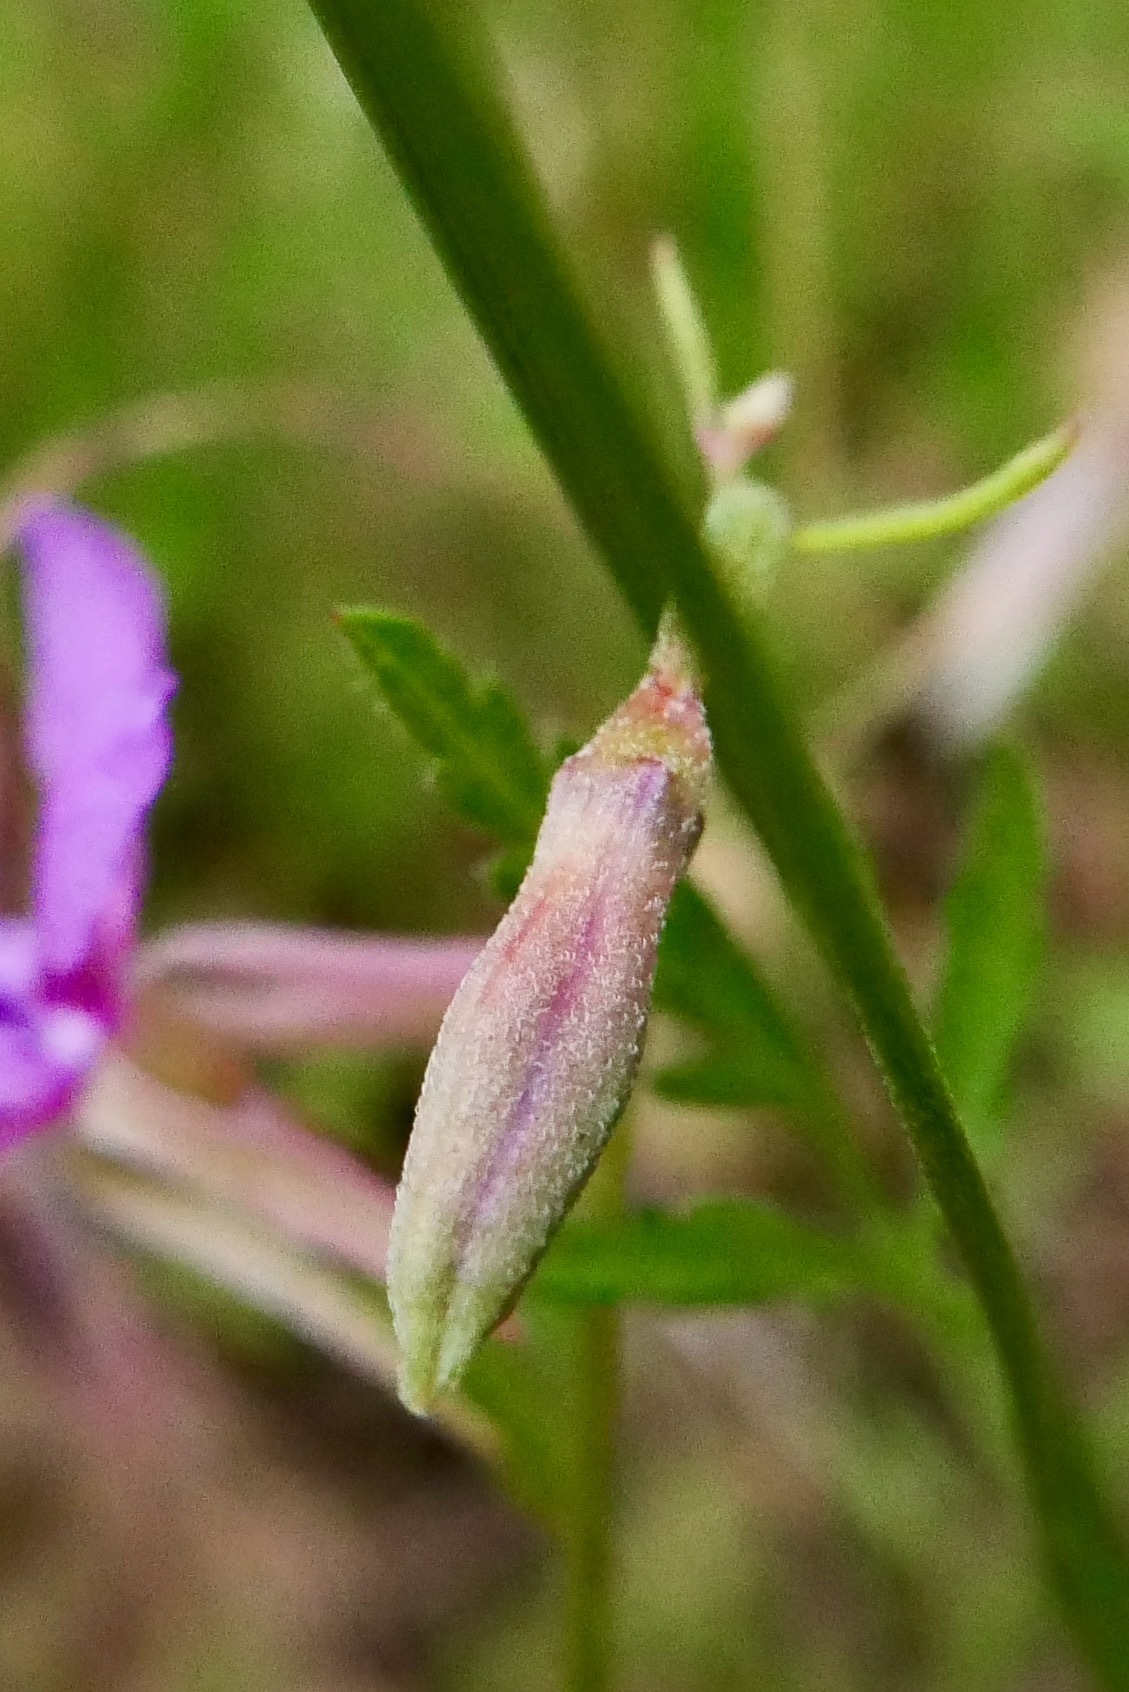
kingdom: Plantae
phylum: Tracheophyta
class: Magnoliopsida
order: Myrtales
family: Onagraceae
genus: Clarkia
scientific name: Clarkia rhomboidea
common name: Broadleaf clarkia
